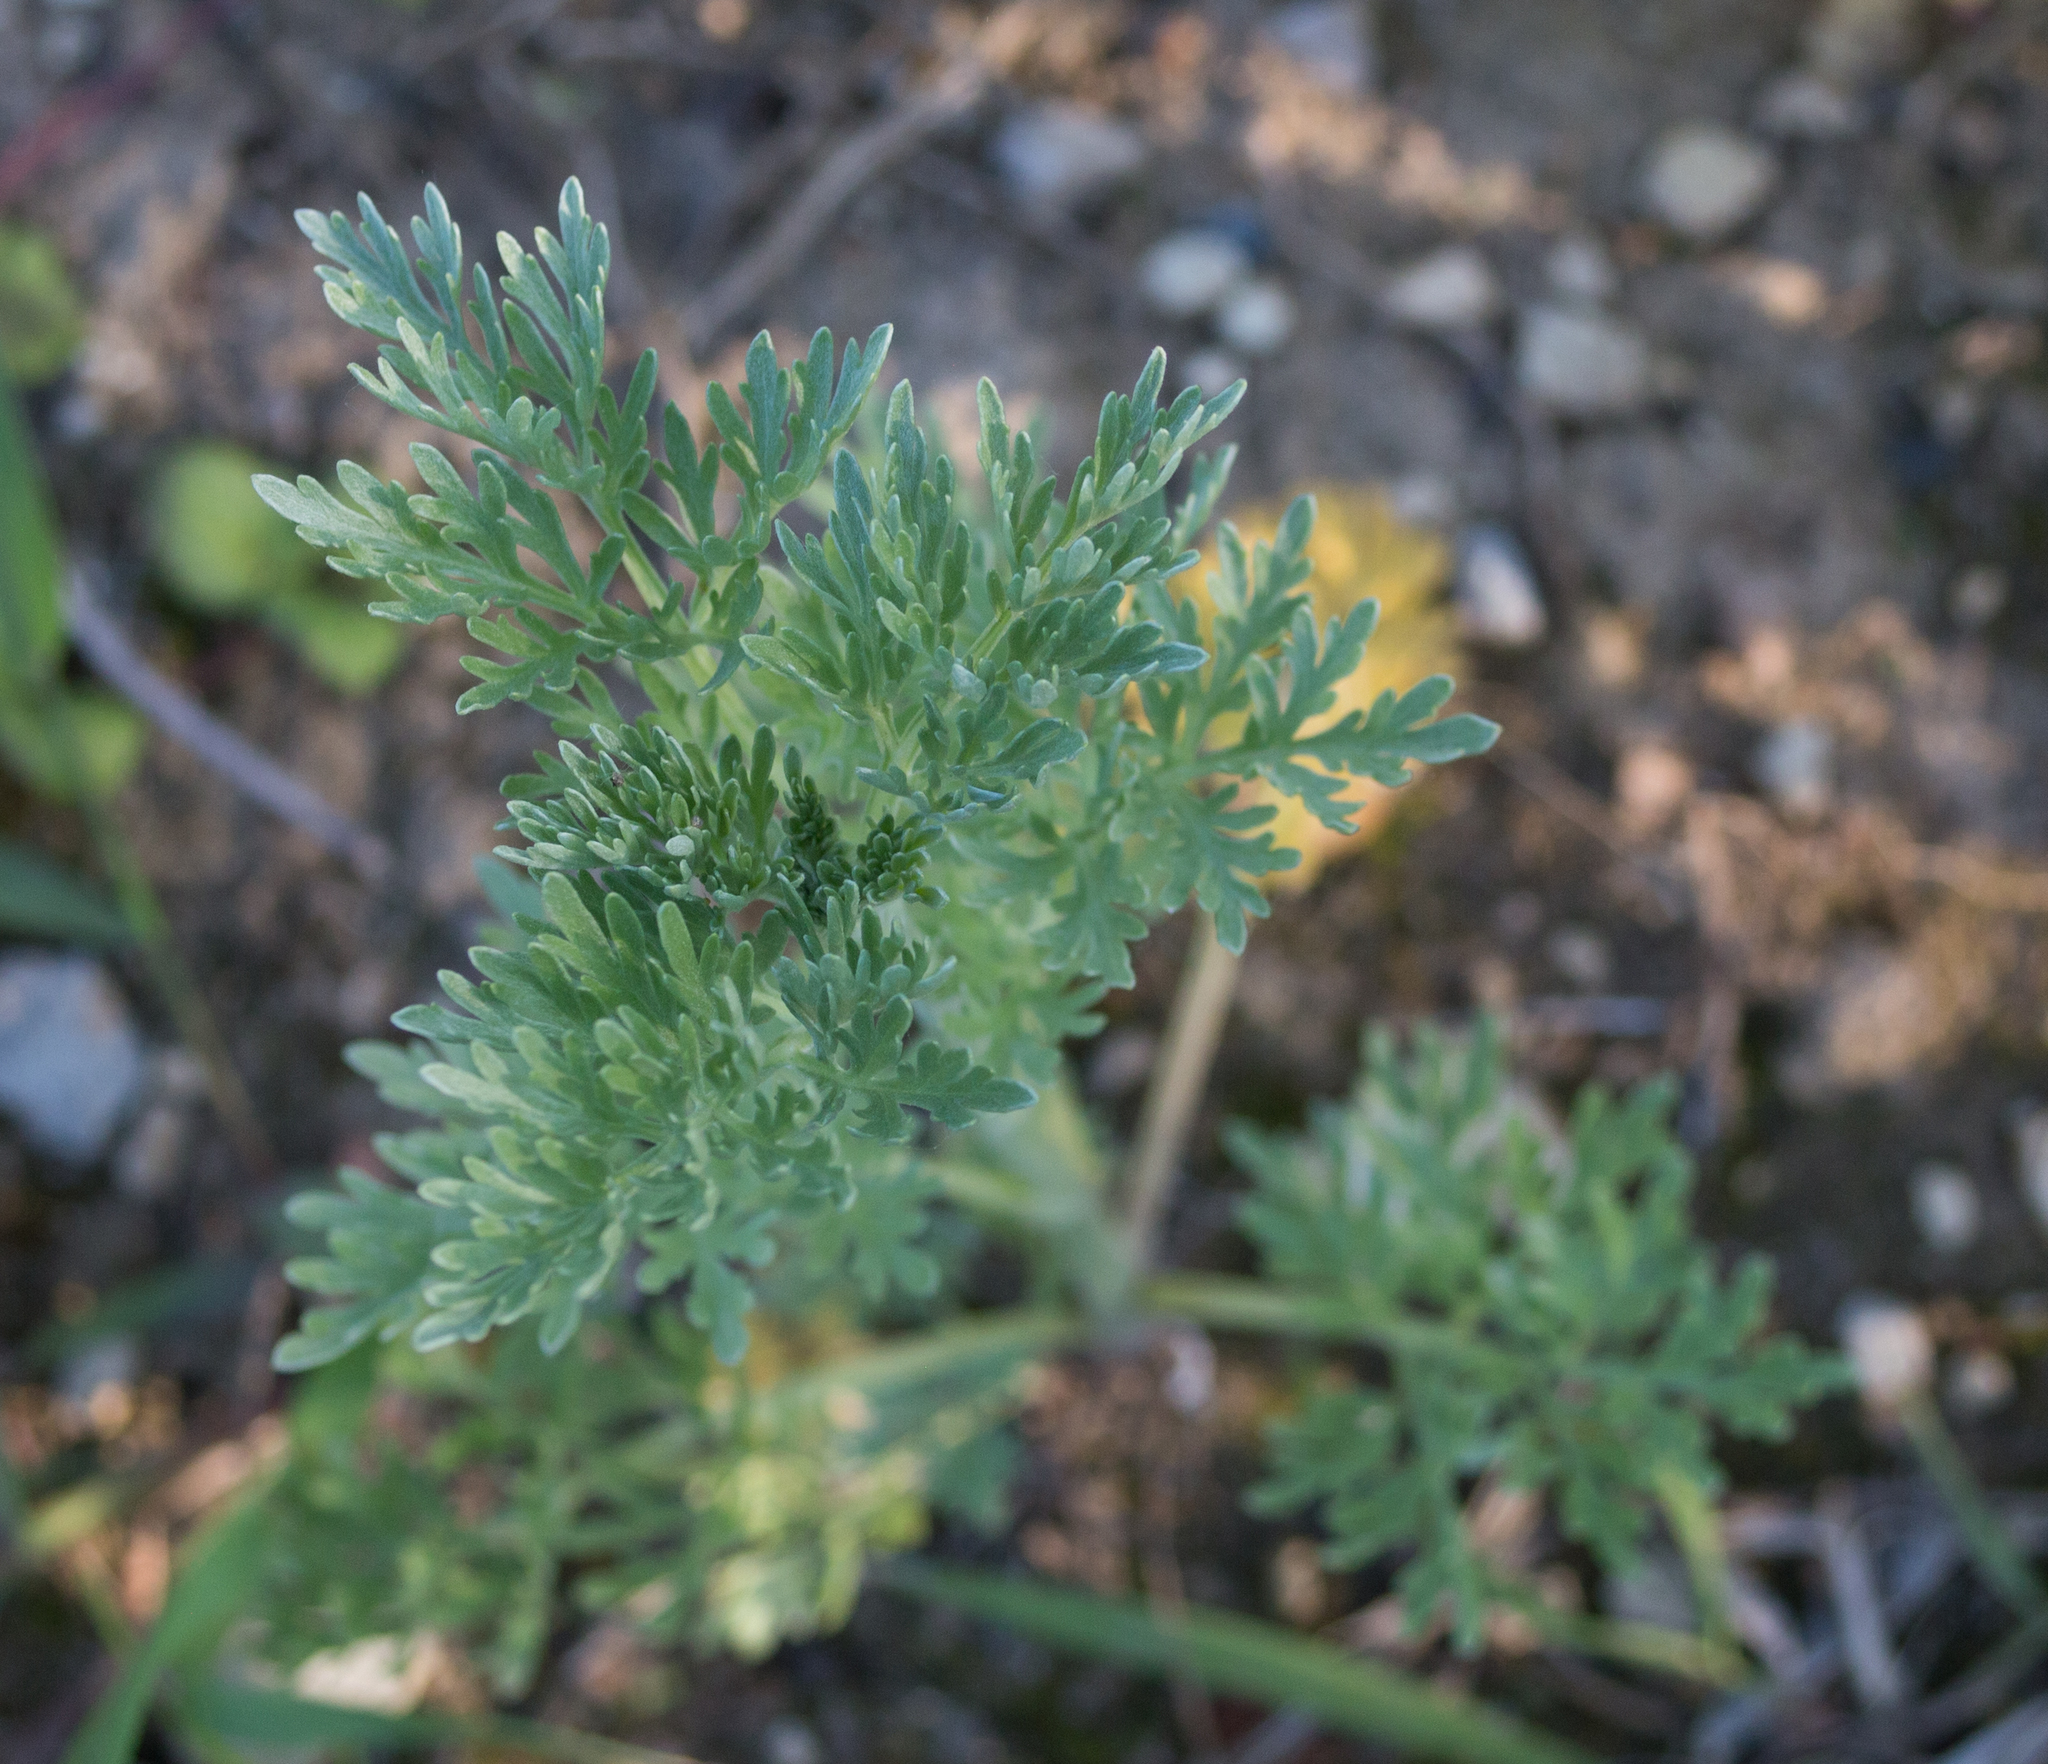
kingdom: Plantae
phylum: Tracheophyta
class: Magnoliopsida
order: Asterales
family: Asteraceae
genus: Artemisia
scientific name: Artemisia absinthium
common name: Wormwood
